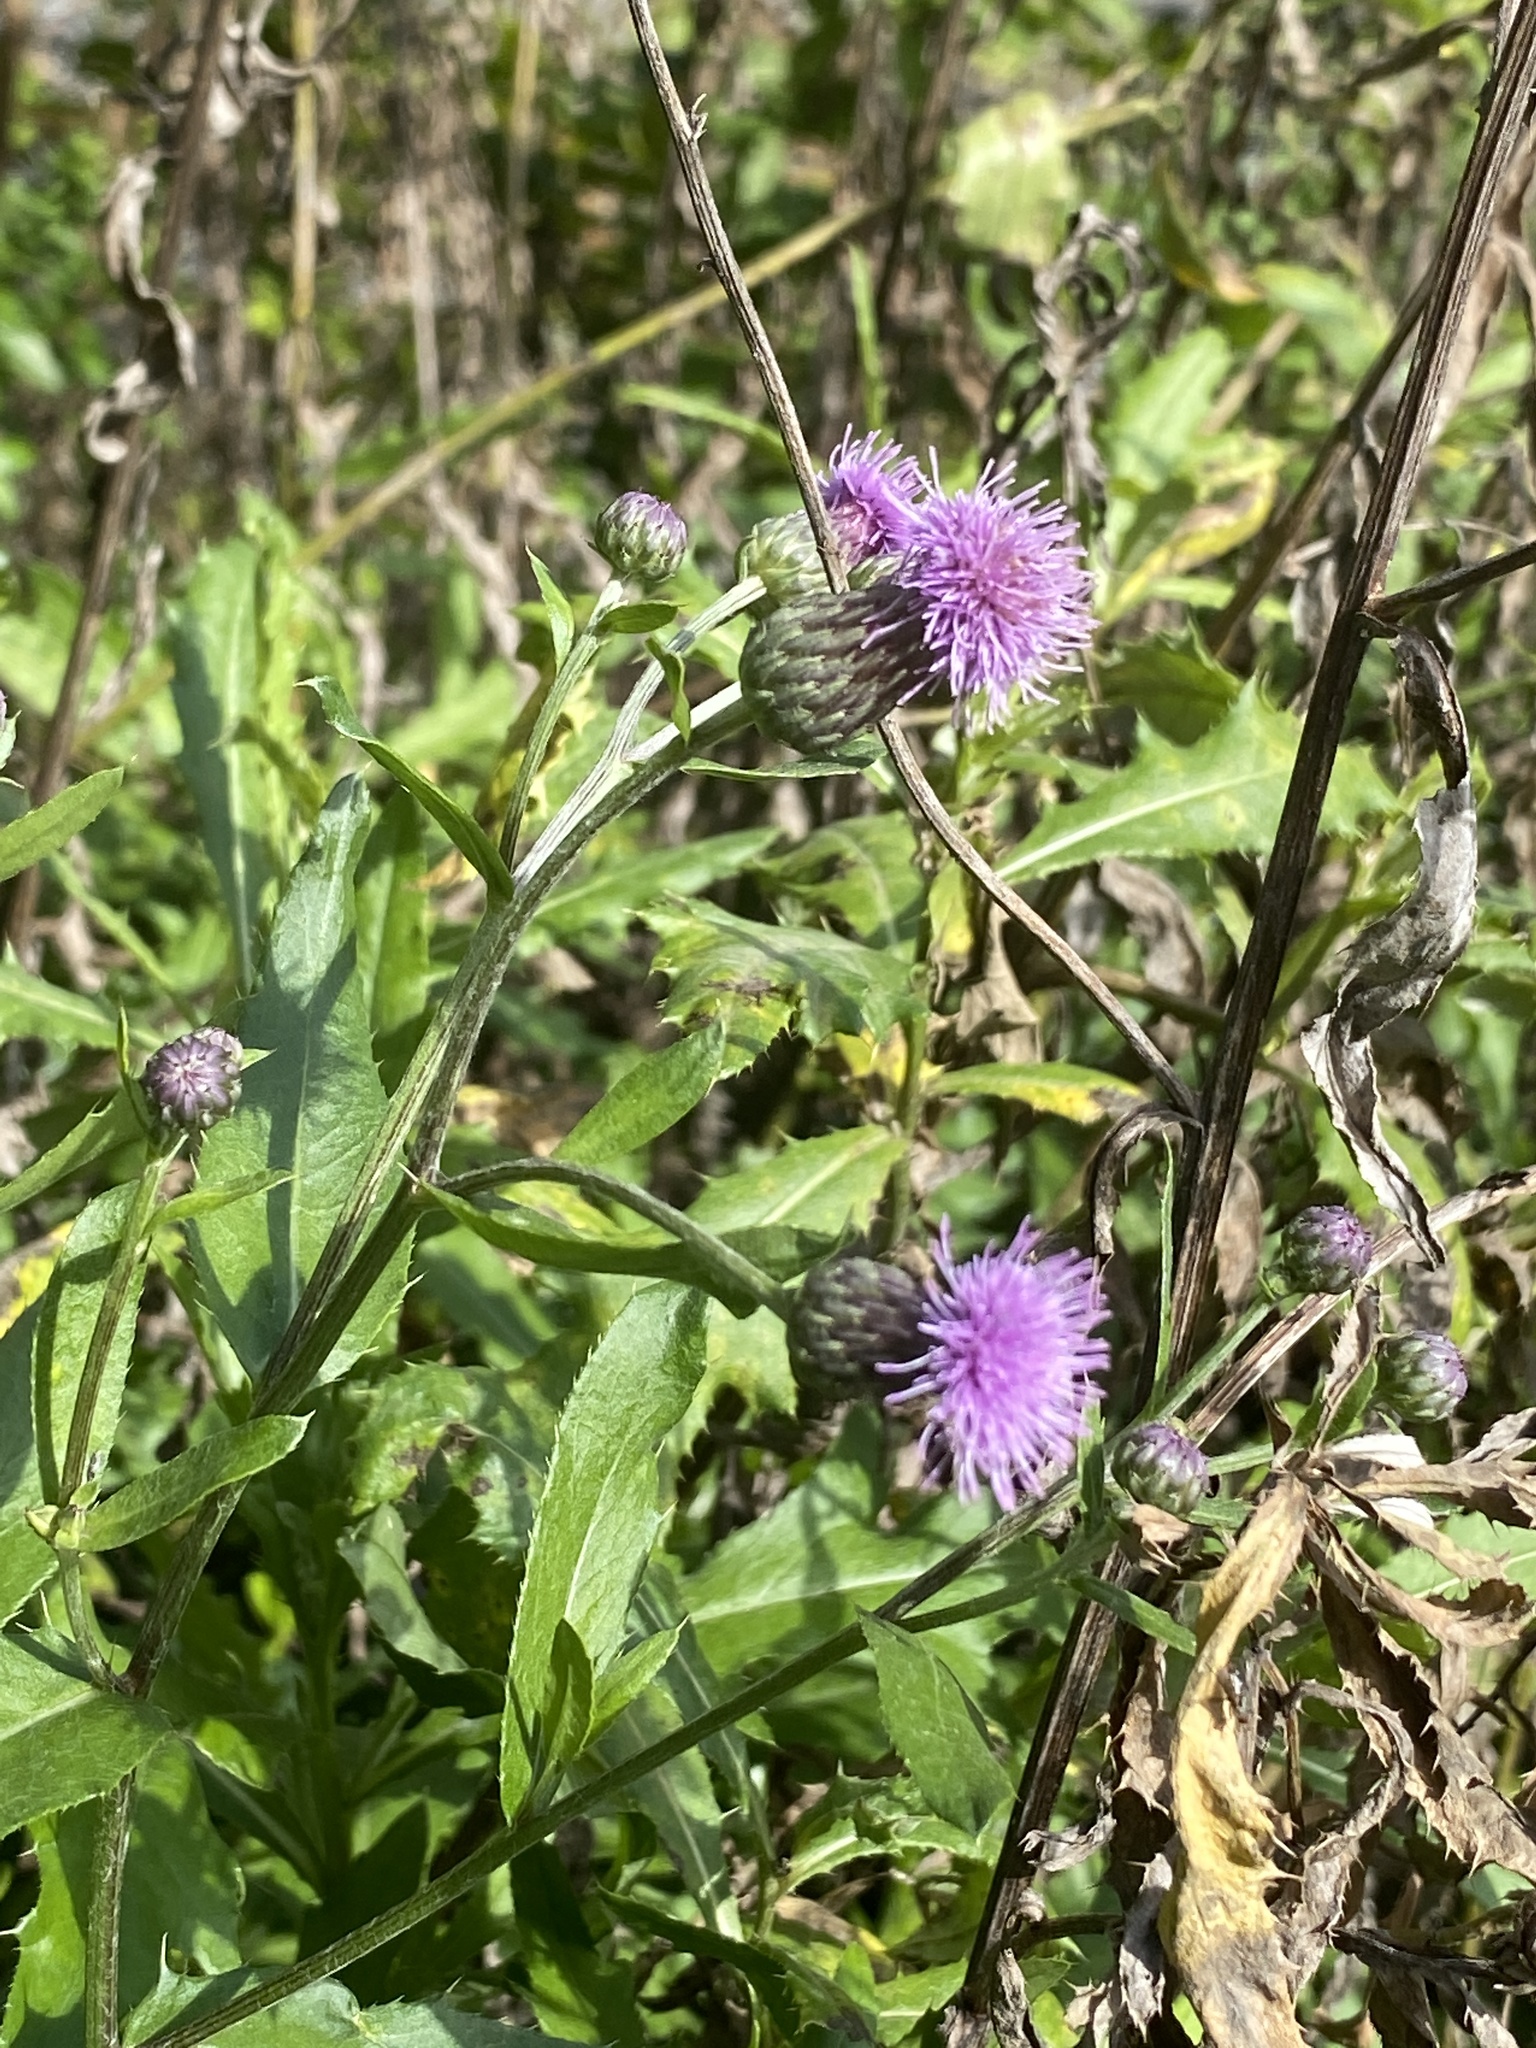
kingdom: Plantae
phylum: Tracheophyta
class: Magnoliopsida
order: Asterales
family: Asteraceae
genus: Cirsium
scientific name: Cirsium arvense
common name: Creeping thistle
